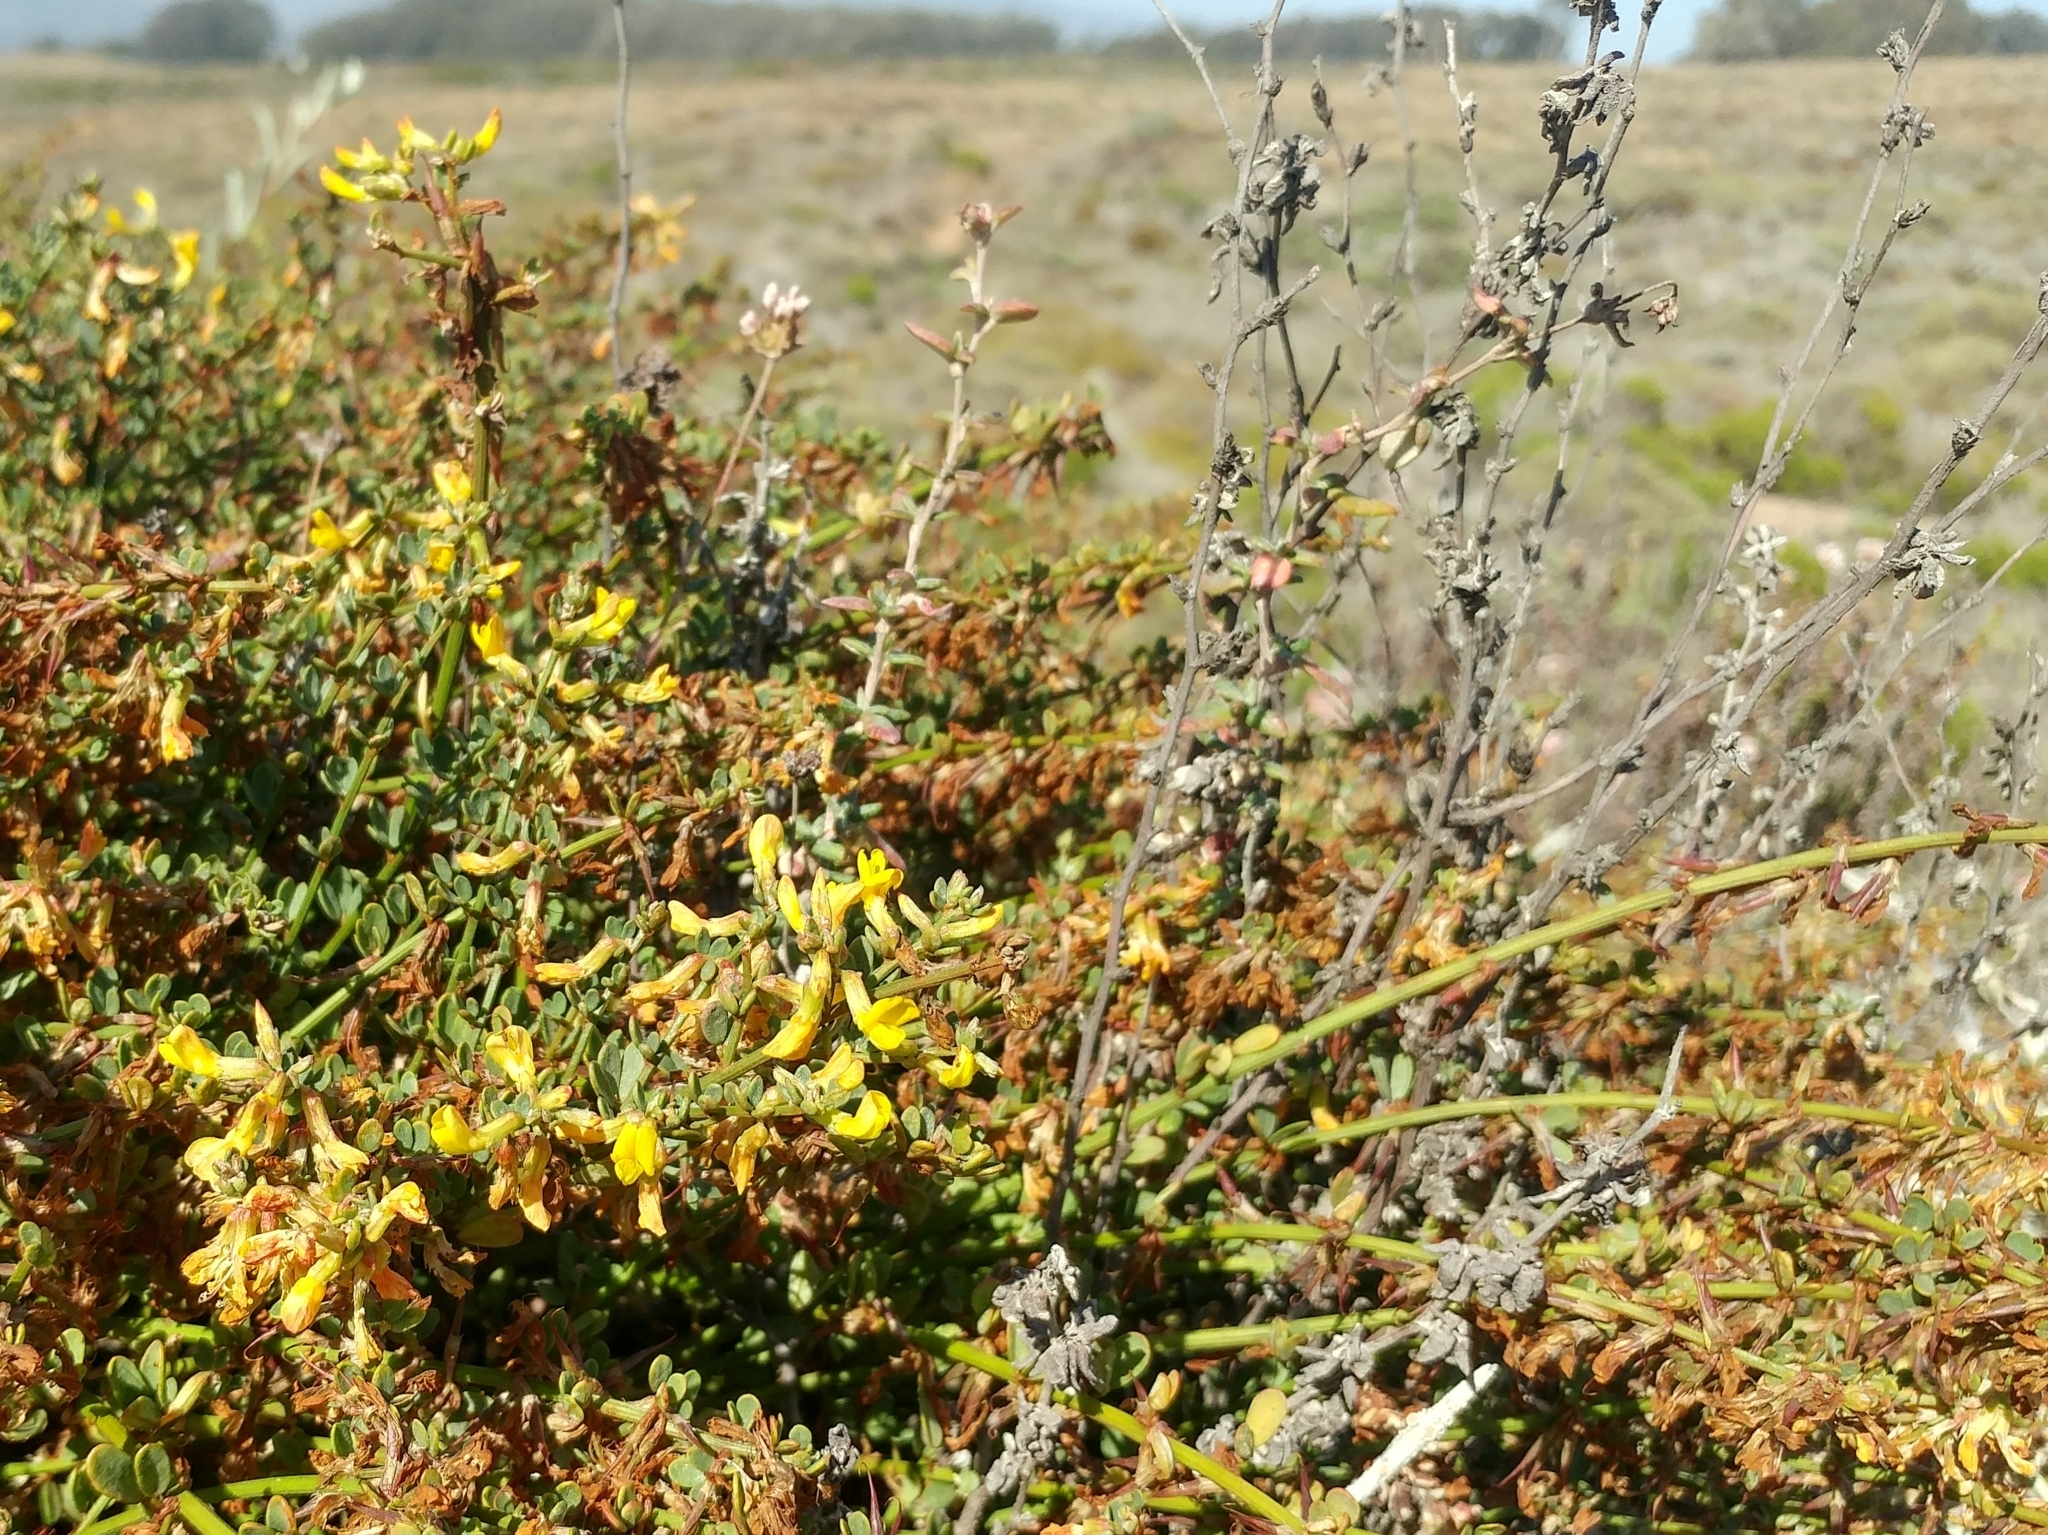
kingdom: Plantae
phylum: Tracheophyta
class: Magnoliopsida
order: Fabales
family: Fabaceae
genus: Acmispon
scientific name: Acmispon glaber
